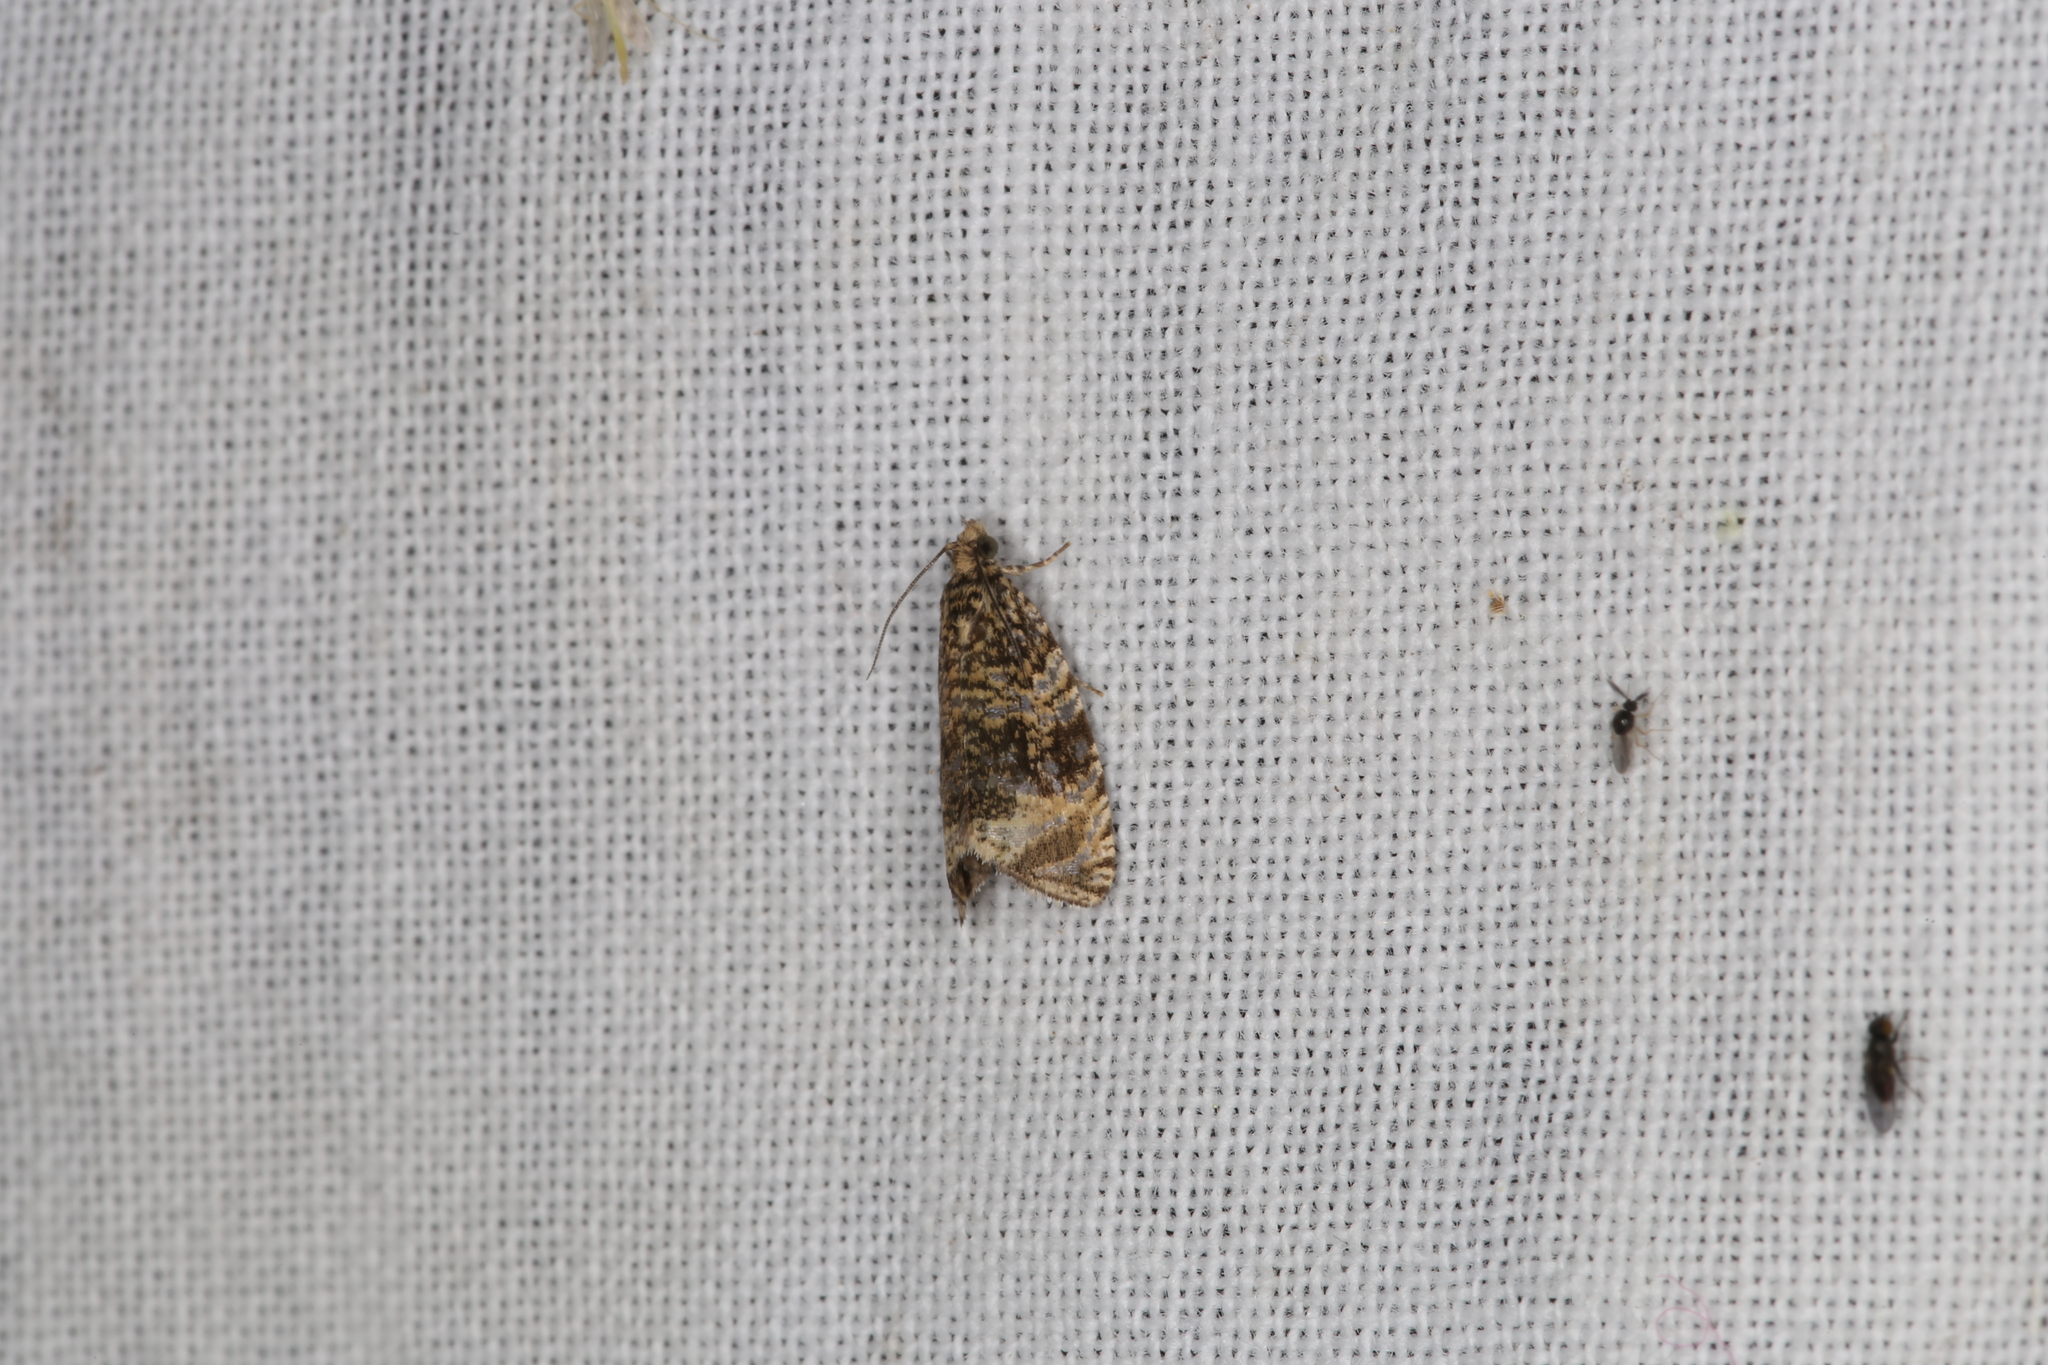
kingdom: Animalia
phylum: Arthropoda
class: Insecta
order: Lepidoptera
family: Tortricidae
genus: Syricoris
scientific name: Syricoris lacunana
